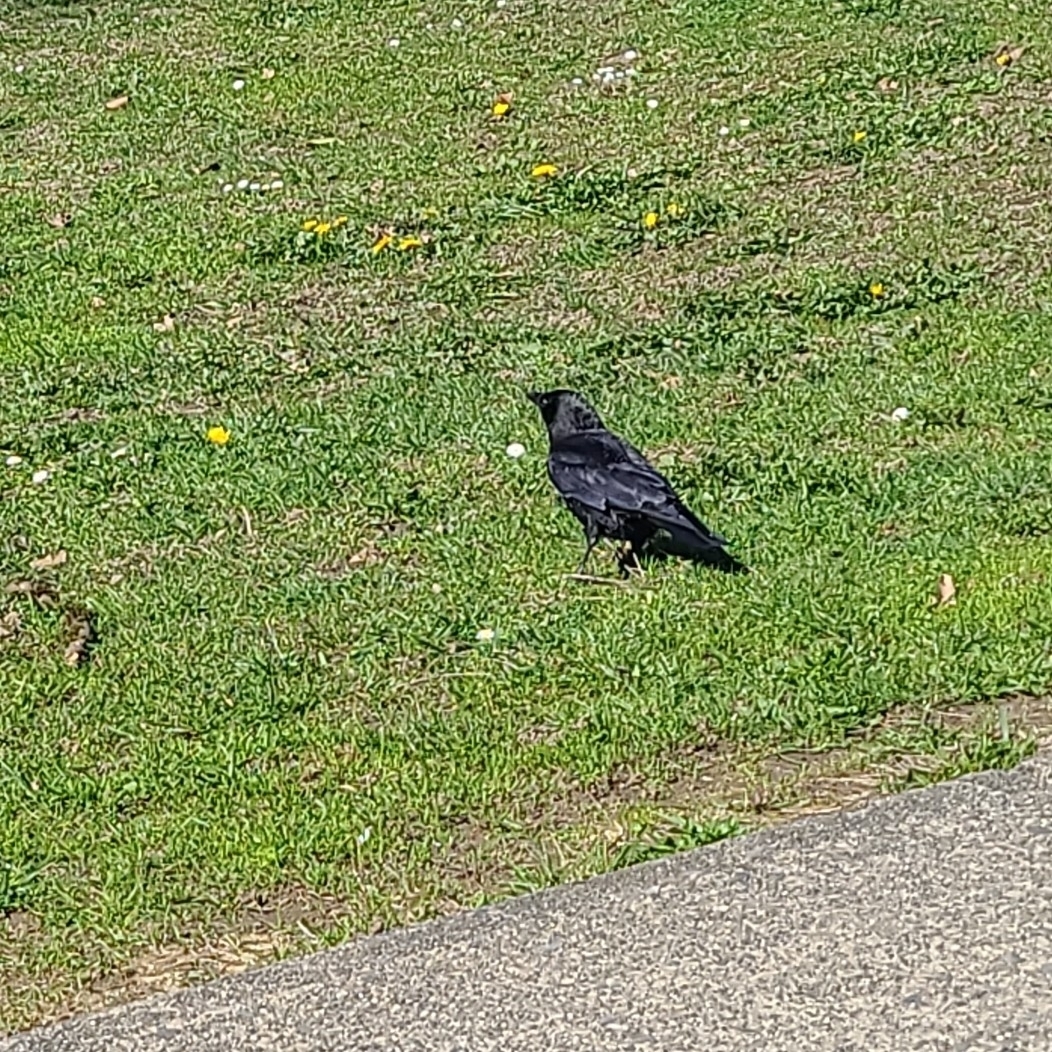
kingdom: Animalia
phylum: Chordata
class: Aves
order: Passeriformes
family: Corvidae
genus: Corvus
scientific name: Corvus brachyrhynchos
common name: American crow
